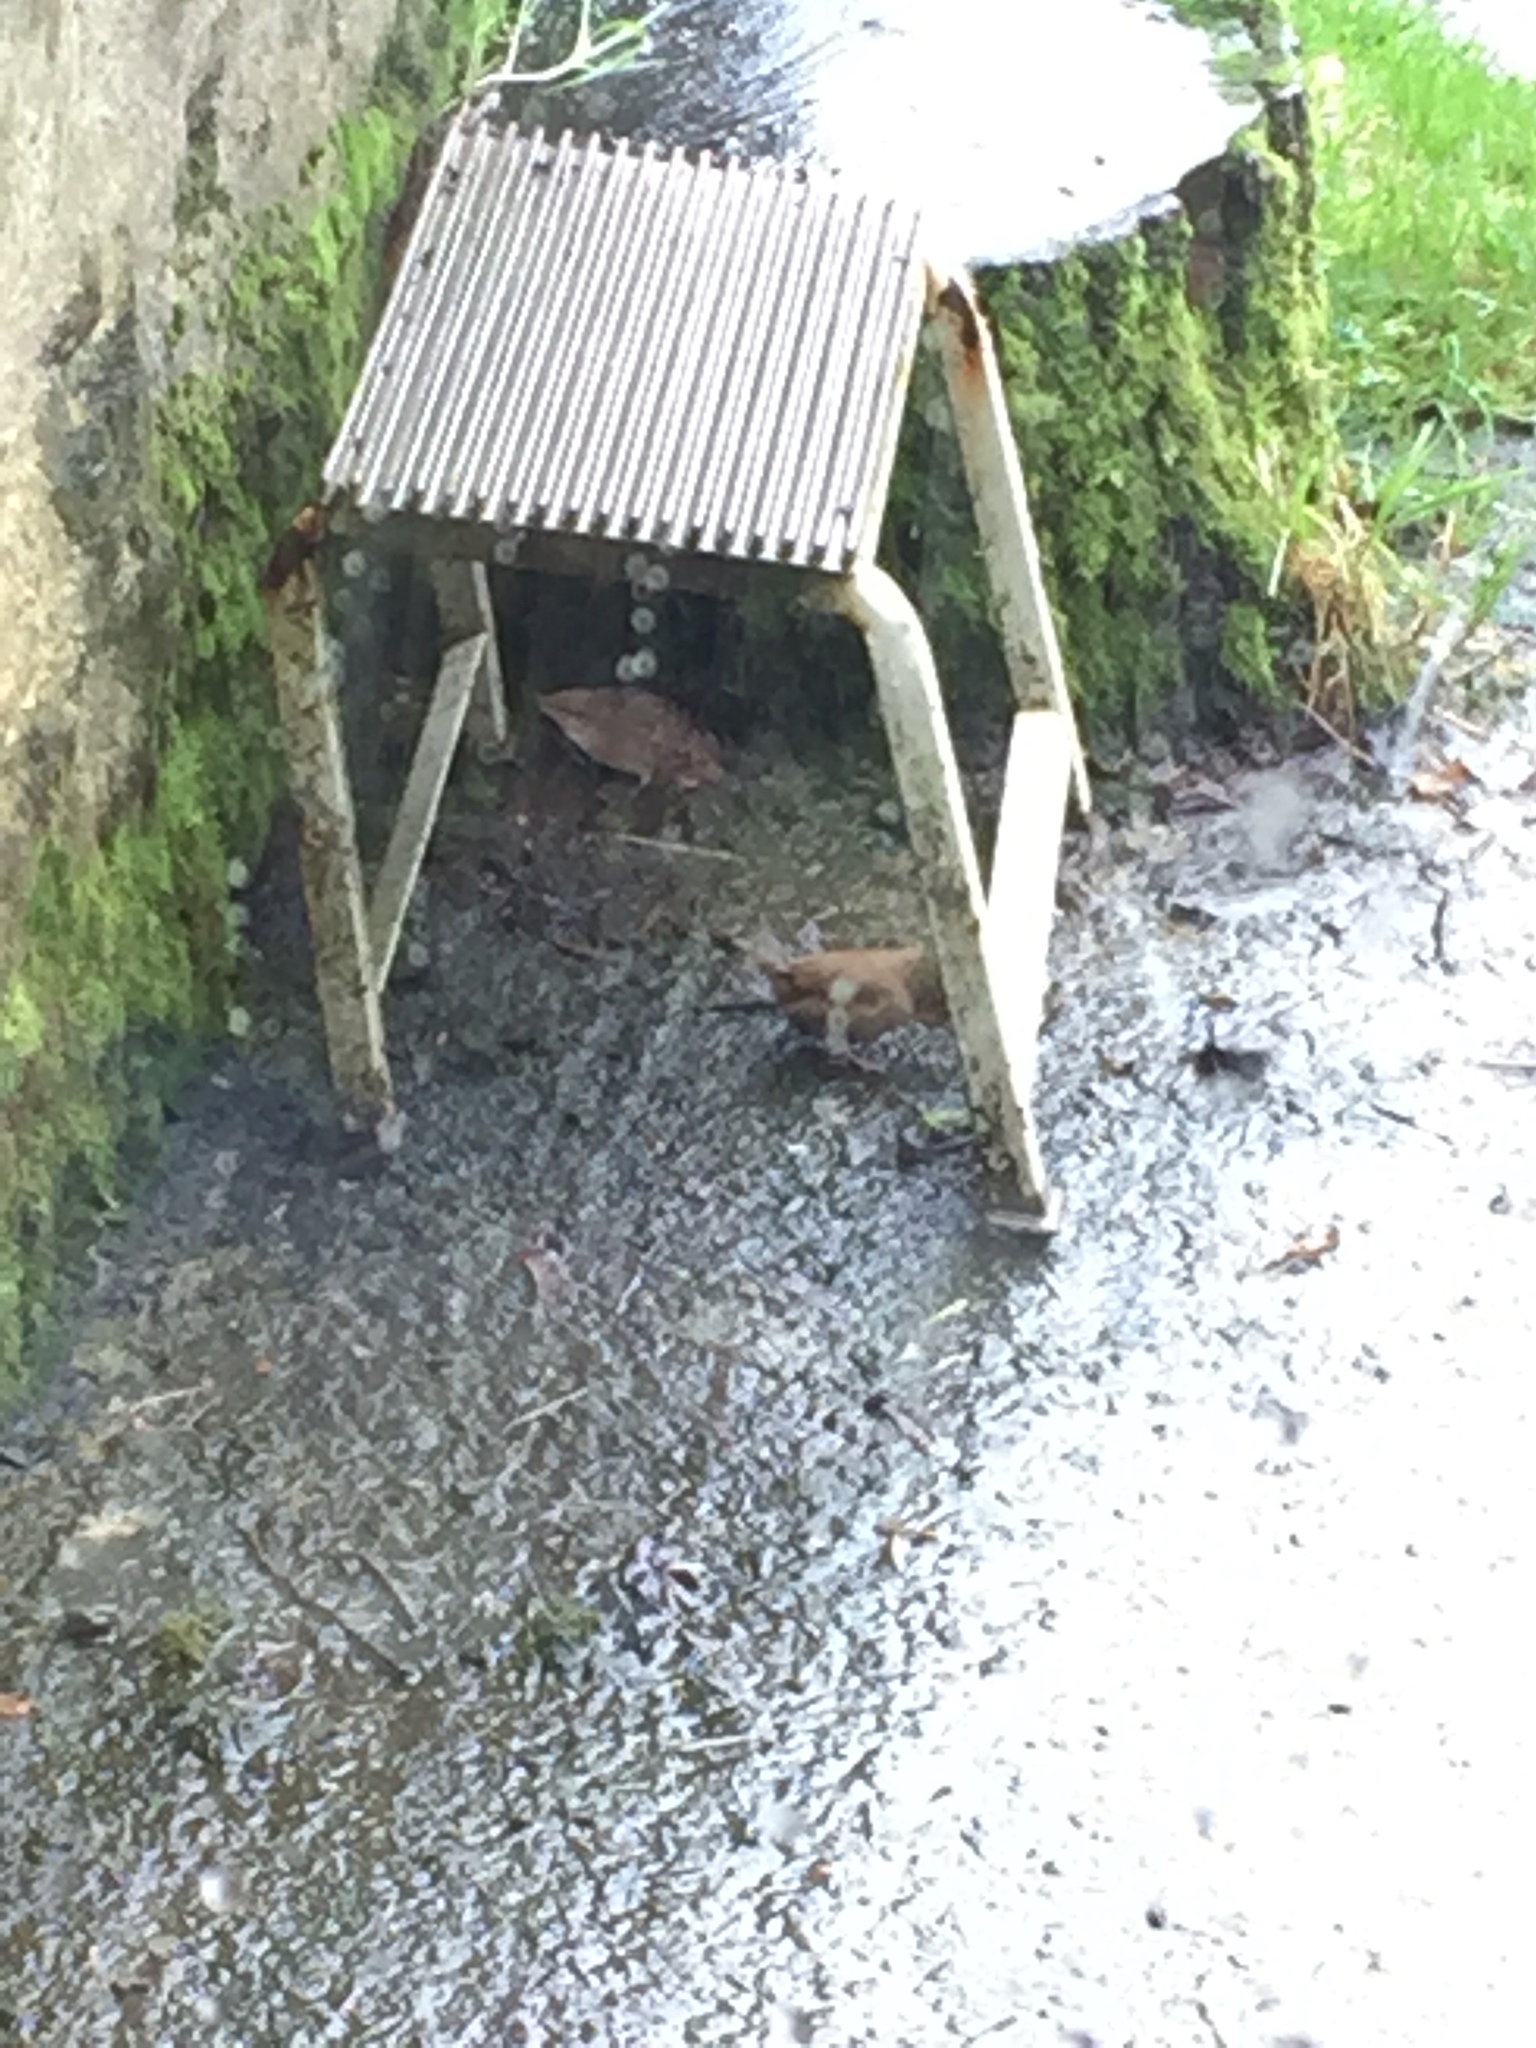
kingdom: Animalia
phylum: Chordata
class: Aves
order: Passeriformes
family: Troglodytidae
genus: Troglodytes
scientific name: Troglodytes troglodytes
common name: Eurasian wren
